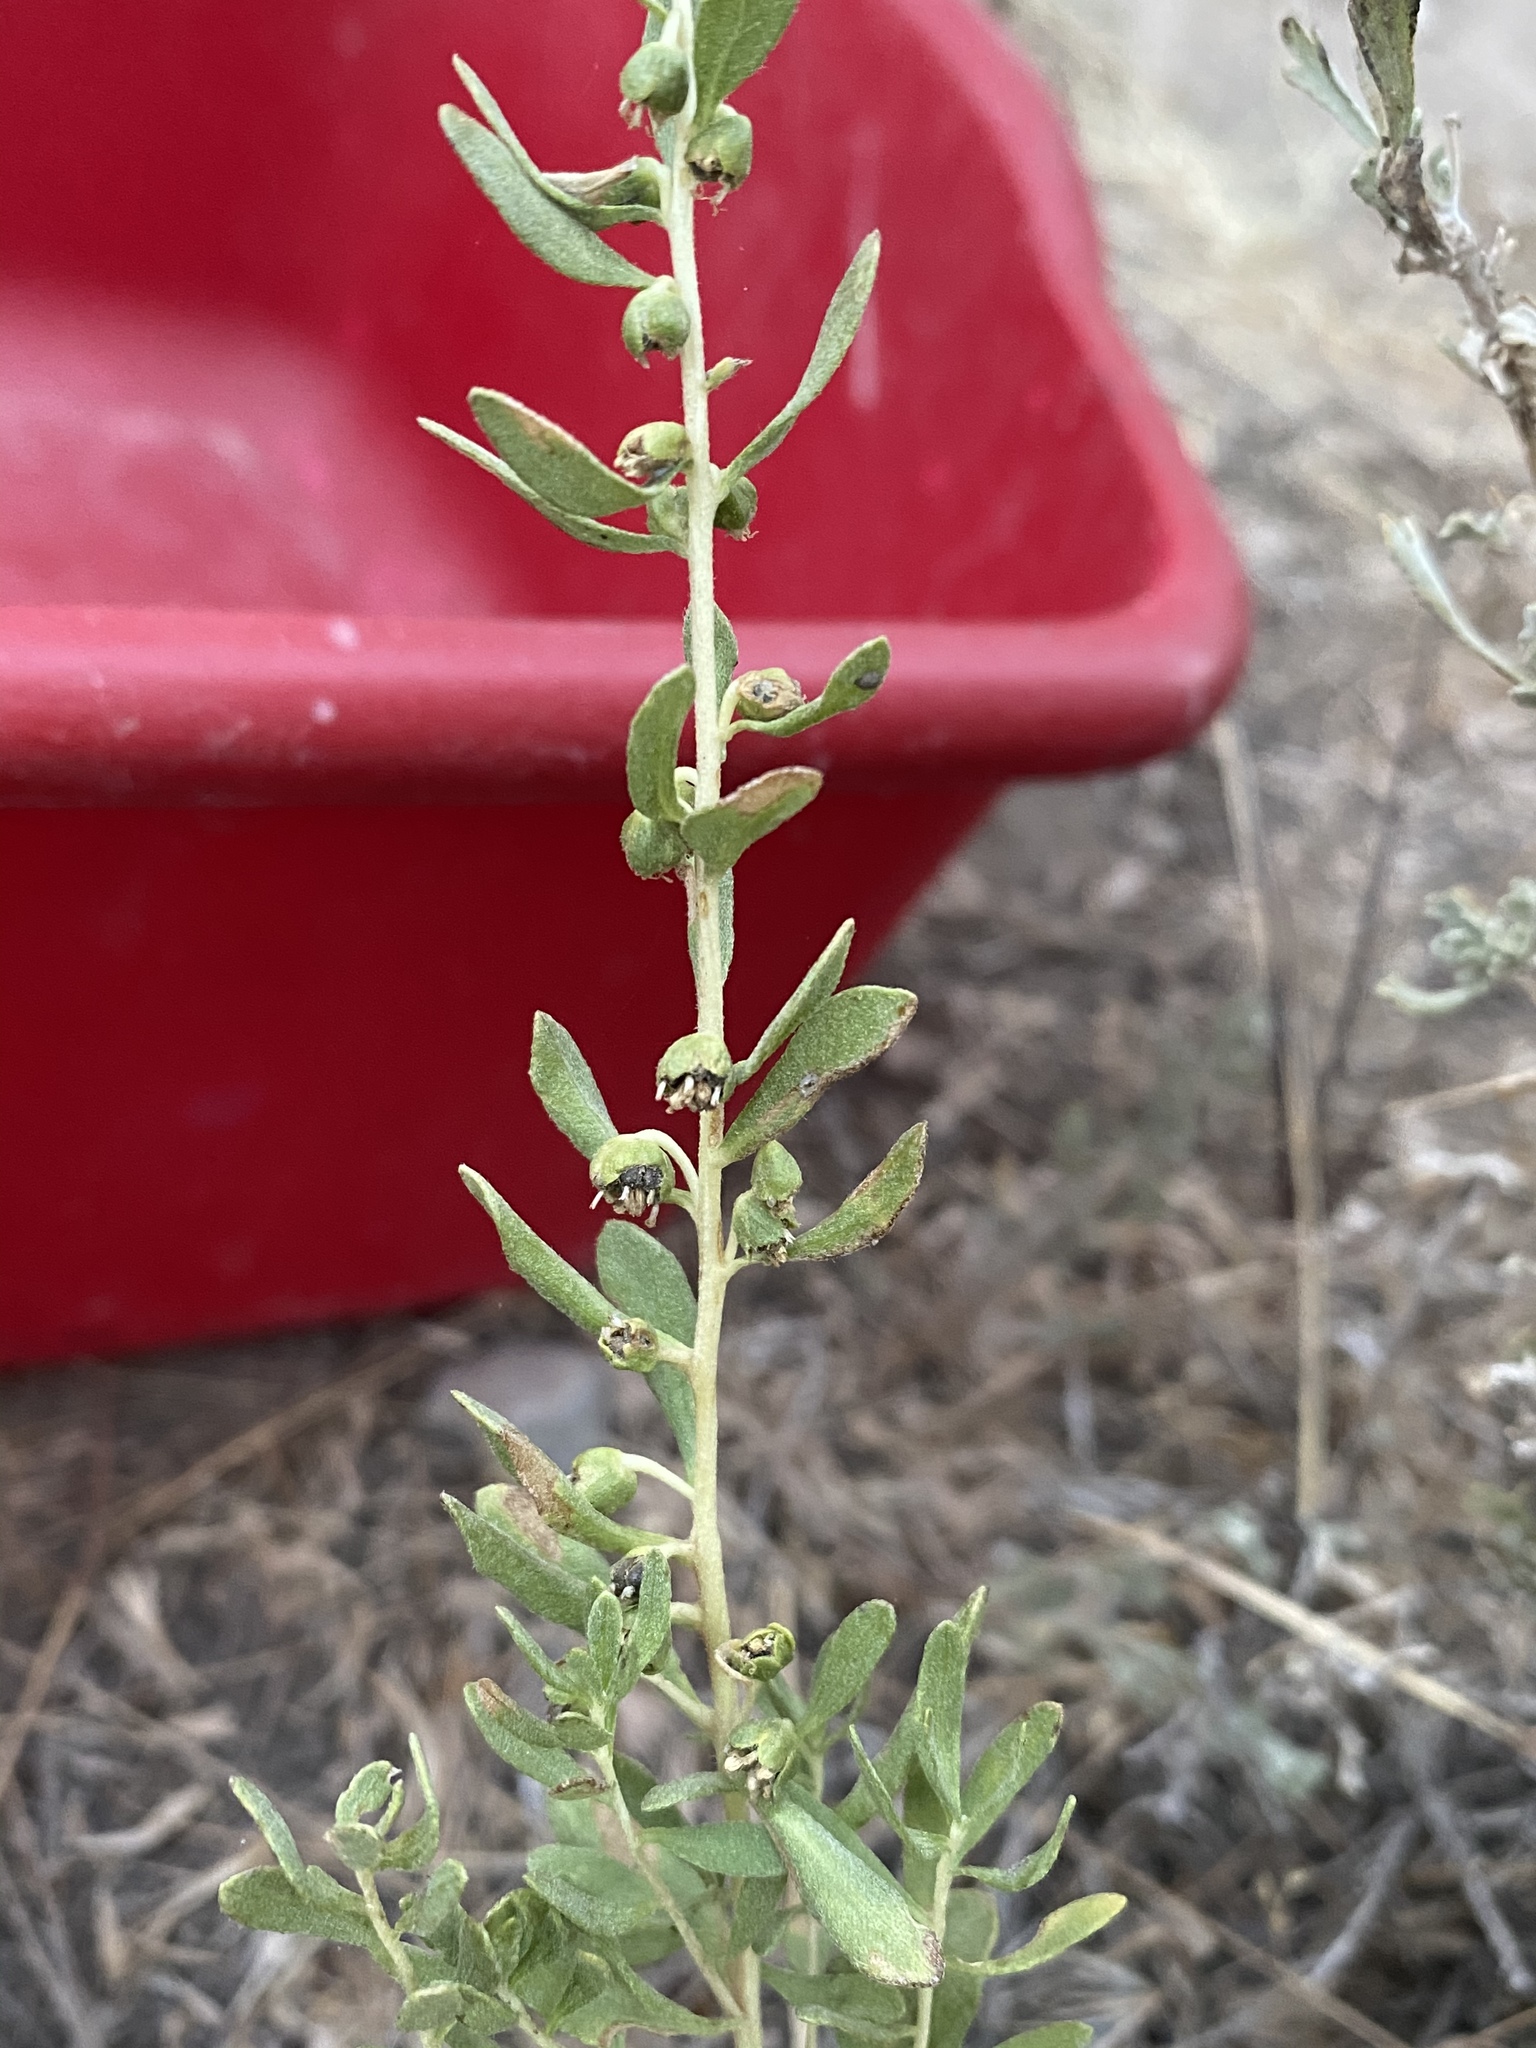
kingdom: Plantae
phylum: Tracheophyta
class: Magnoliopsida
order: Asterales
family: Asteraceae
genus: Iva
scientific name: Iva axillaris
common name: Poverty sumpweed
